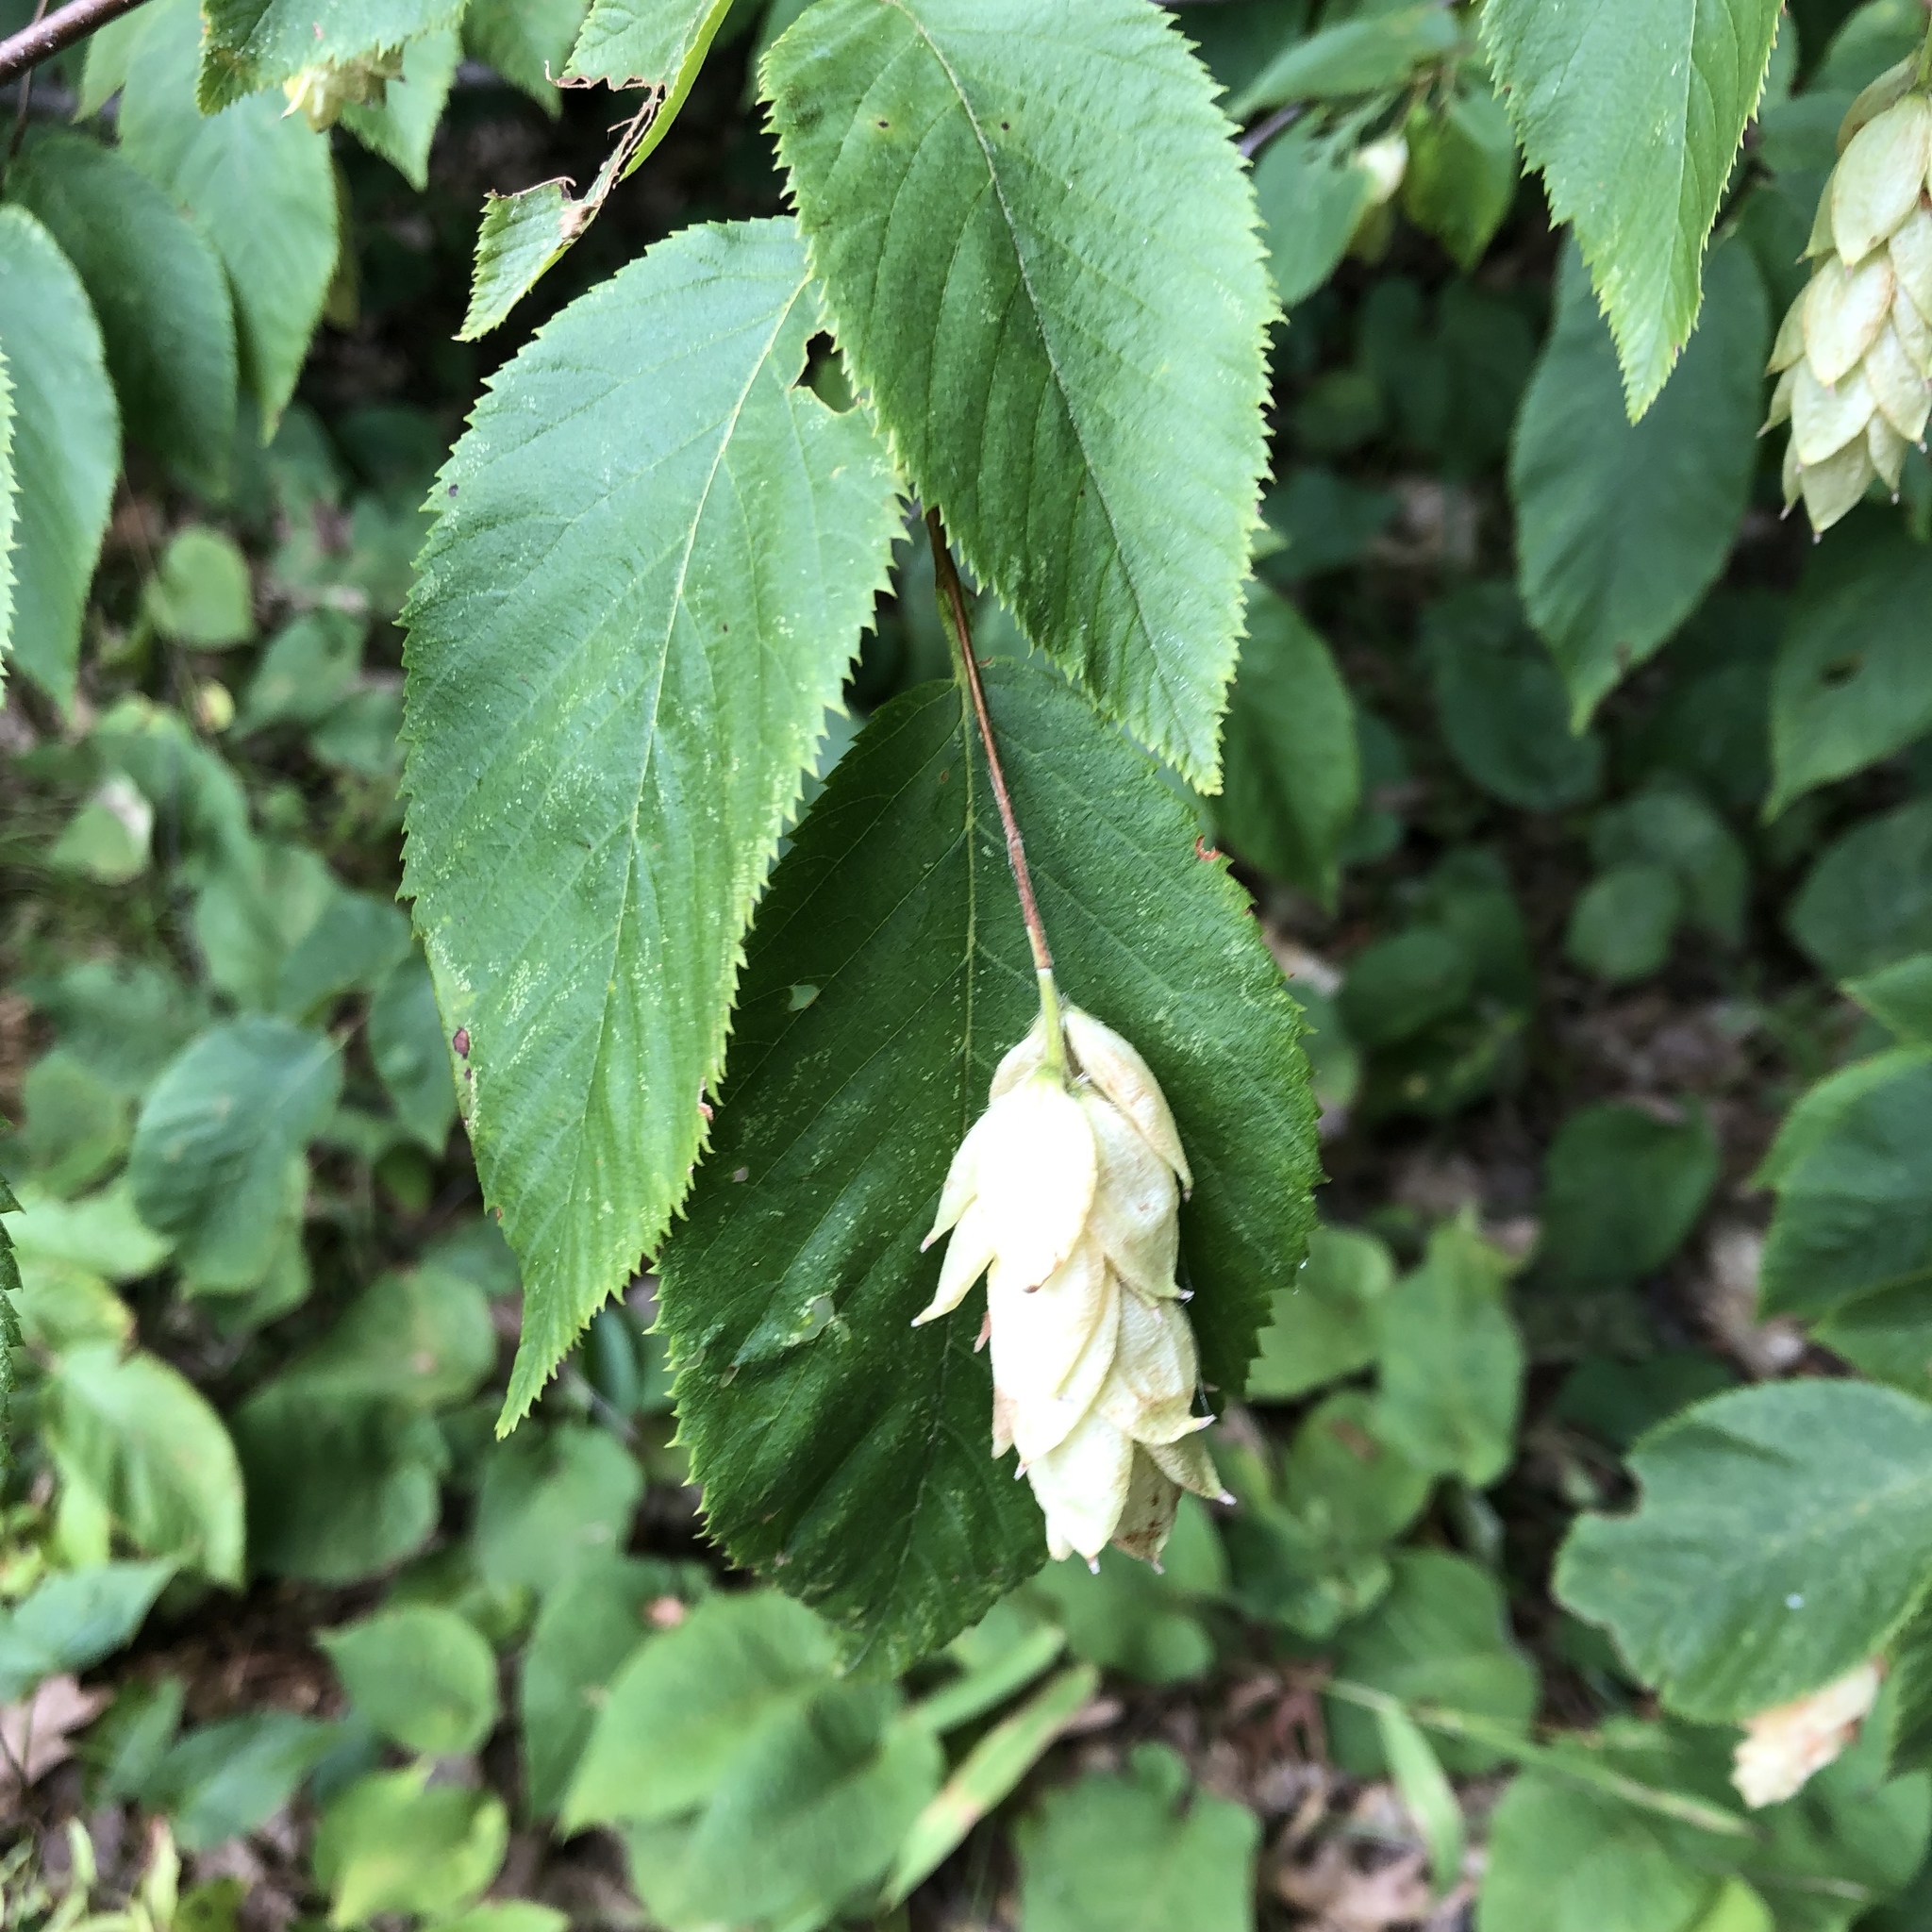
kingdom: Plantae
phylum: Tracheophyta
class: Magnoliopsida
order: Fagales
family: Betulaceae
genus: Ostrya
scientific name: Ostrya virginiana
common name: Ironwood
